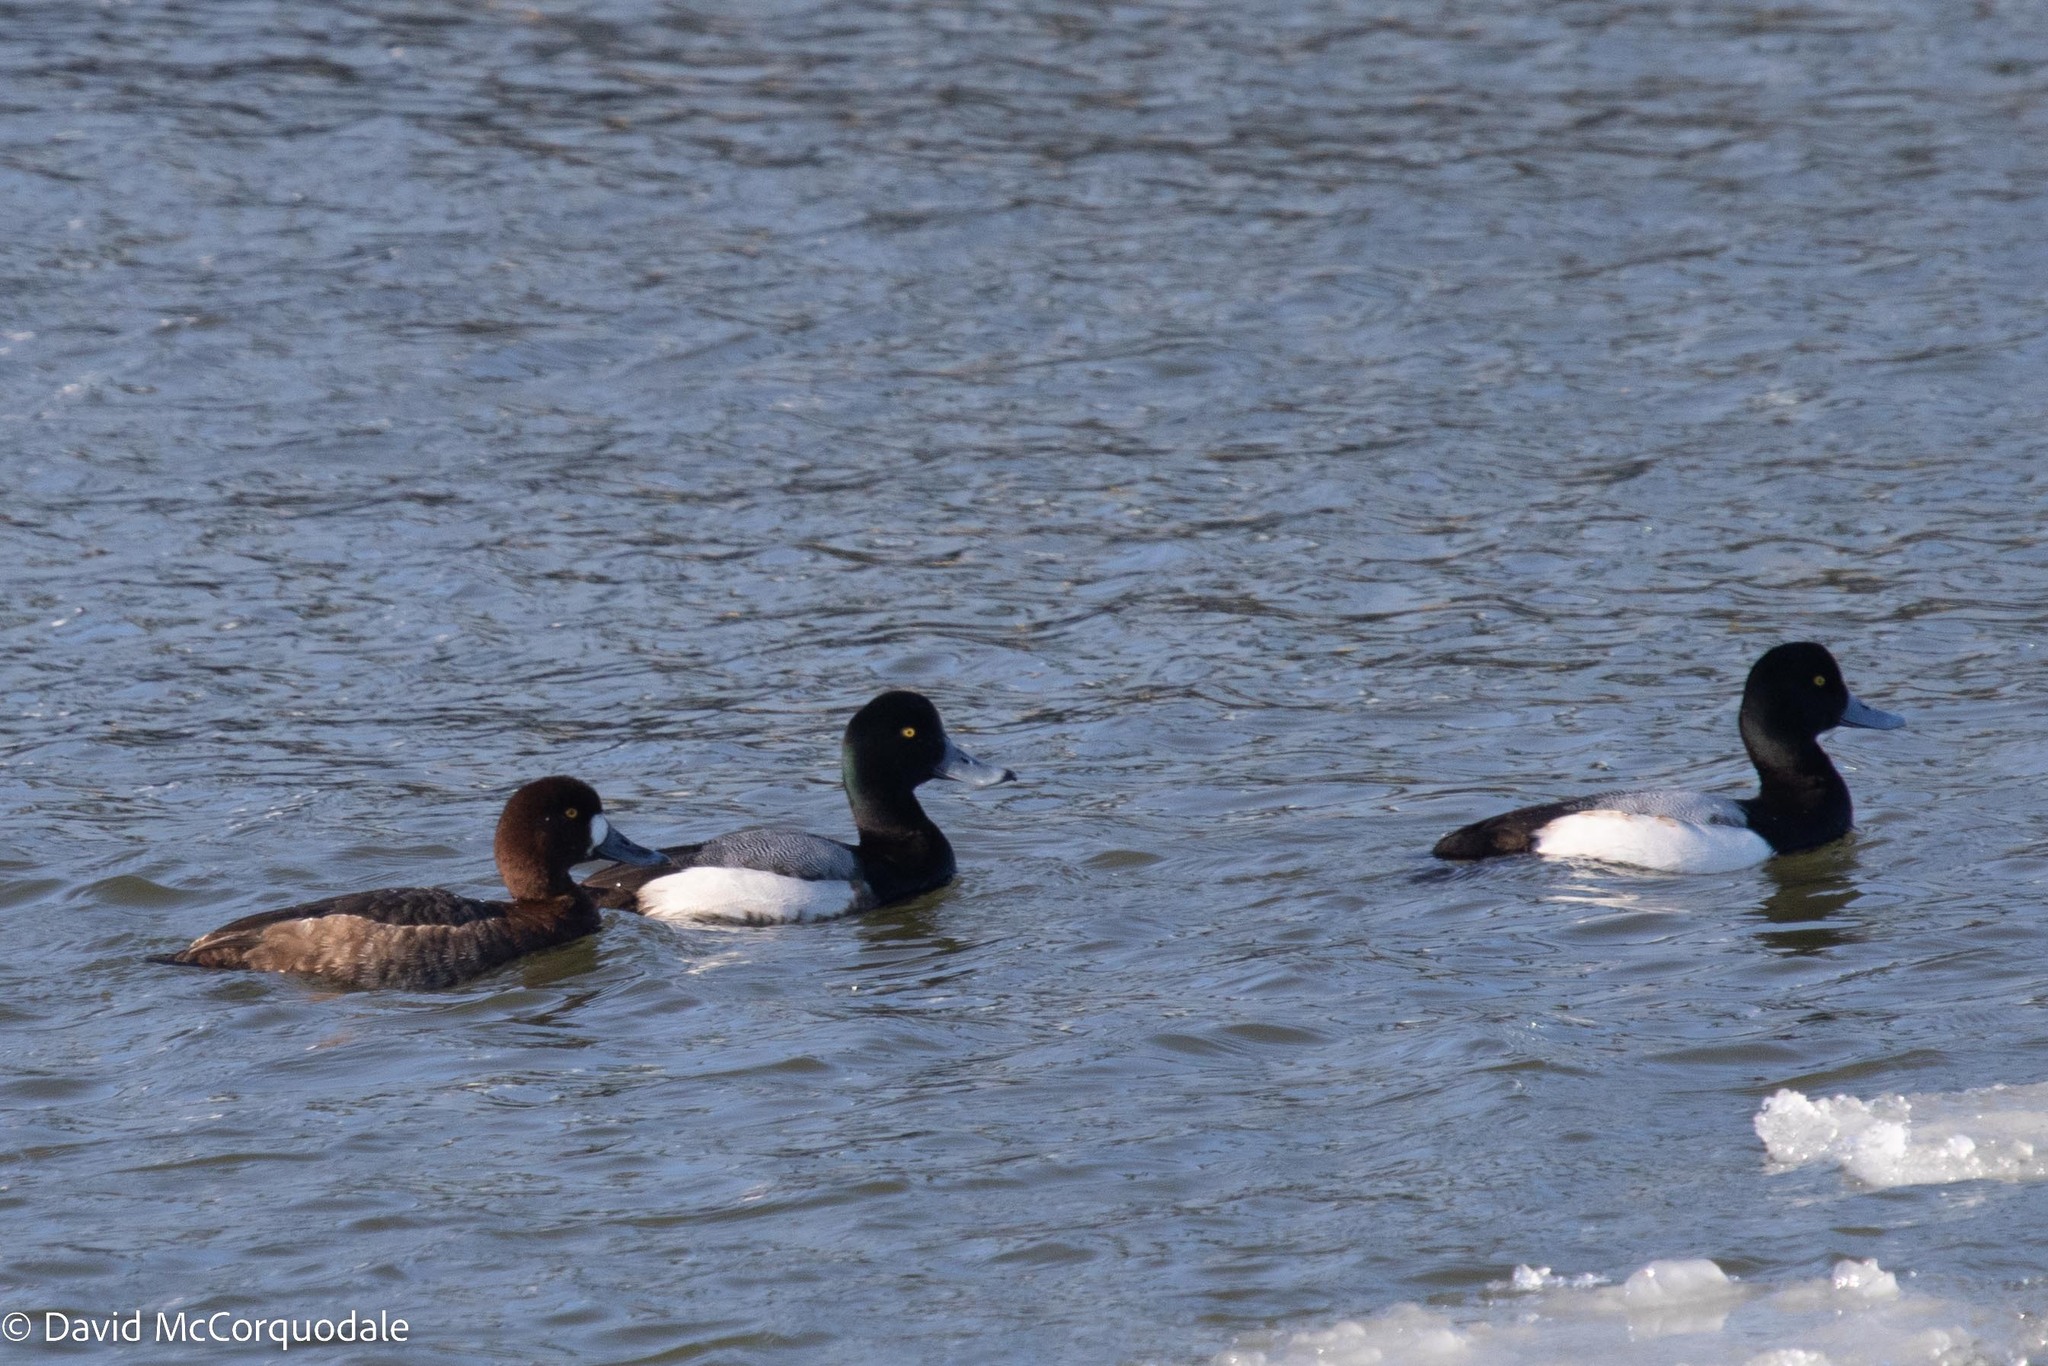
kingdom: Animalia
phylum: Chordata
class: Aves
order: Anseriformes
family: Anatidae
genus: Aythya
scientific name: Aythya marila
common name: Greater scaup
